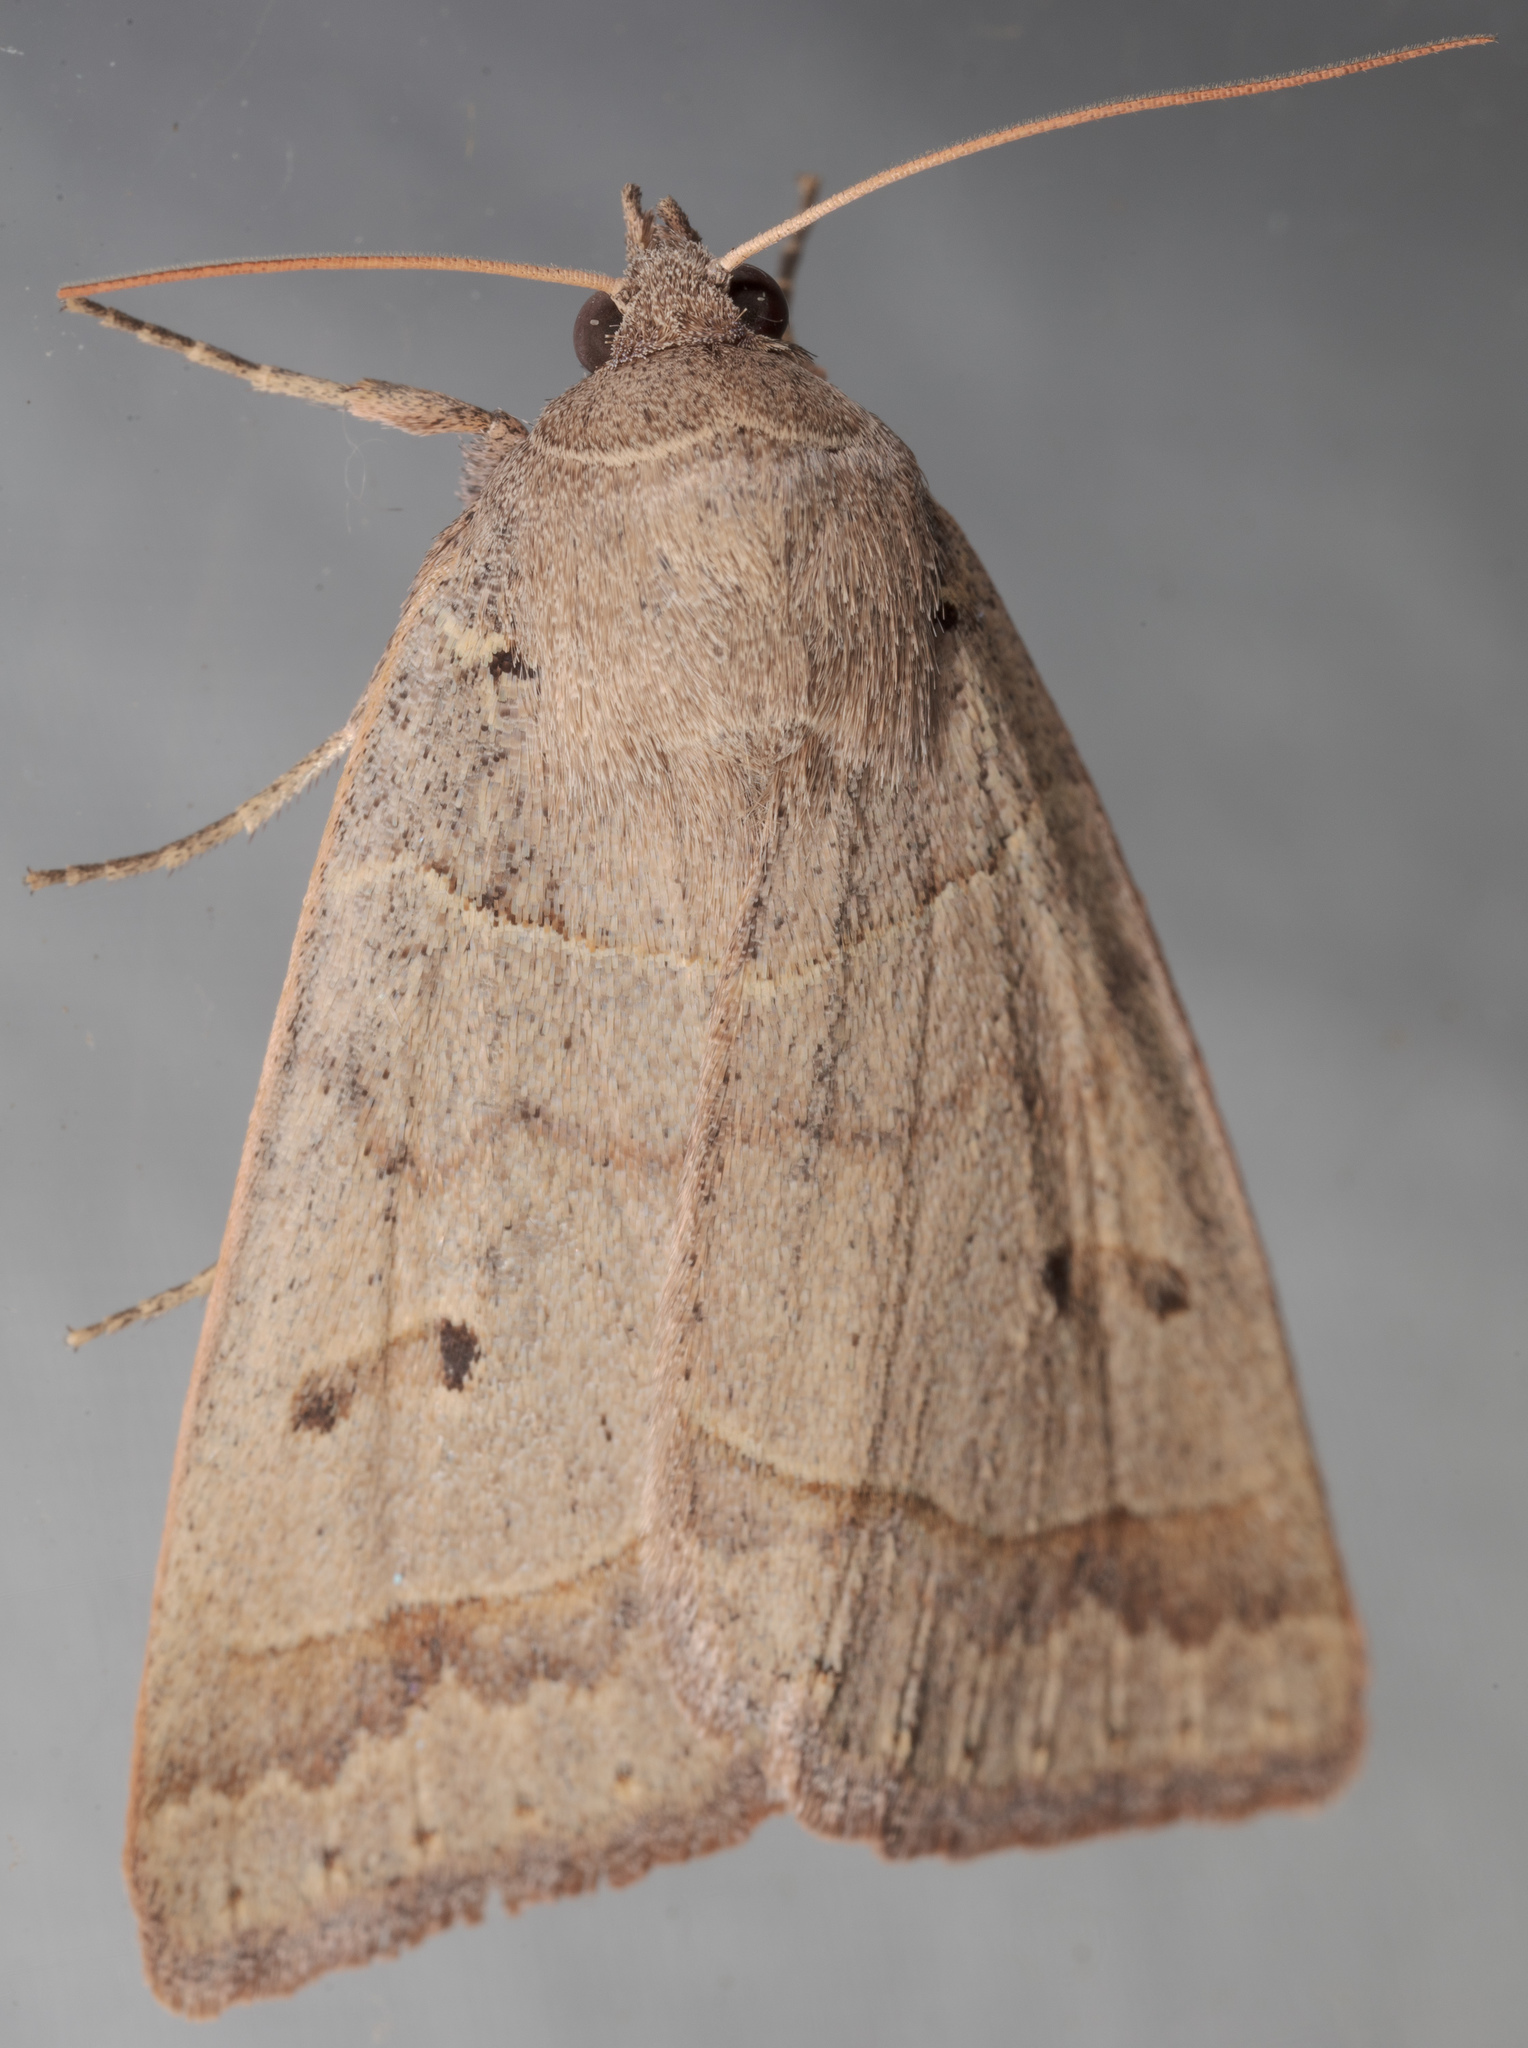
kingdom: Animalia
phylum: Arthropoda
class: Insecta
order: Lepidoptera
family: Erebidae
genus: Phoberia
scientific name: Phoberia atomaris
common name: Common oak moth
